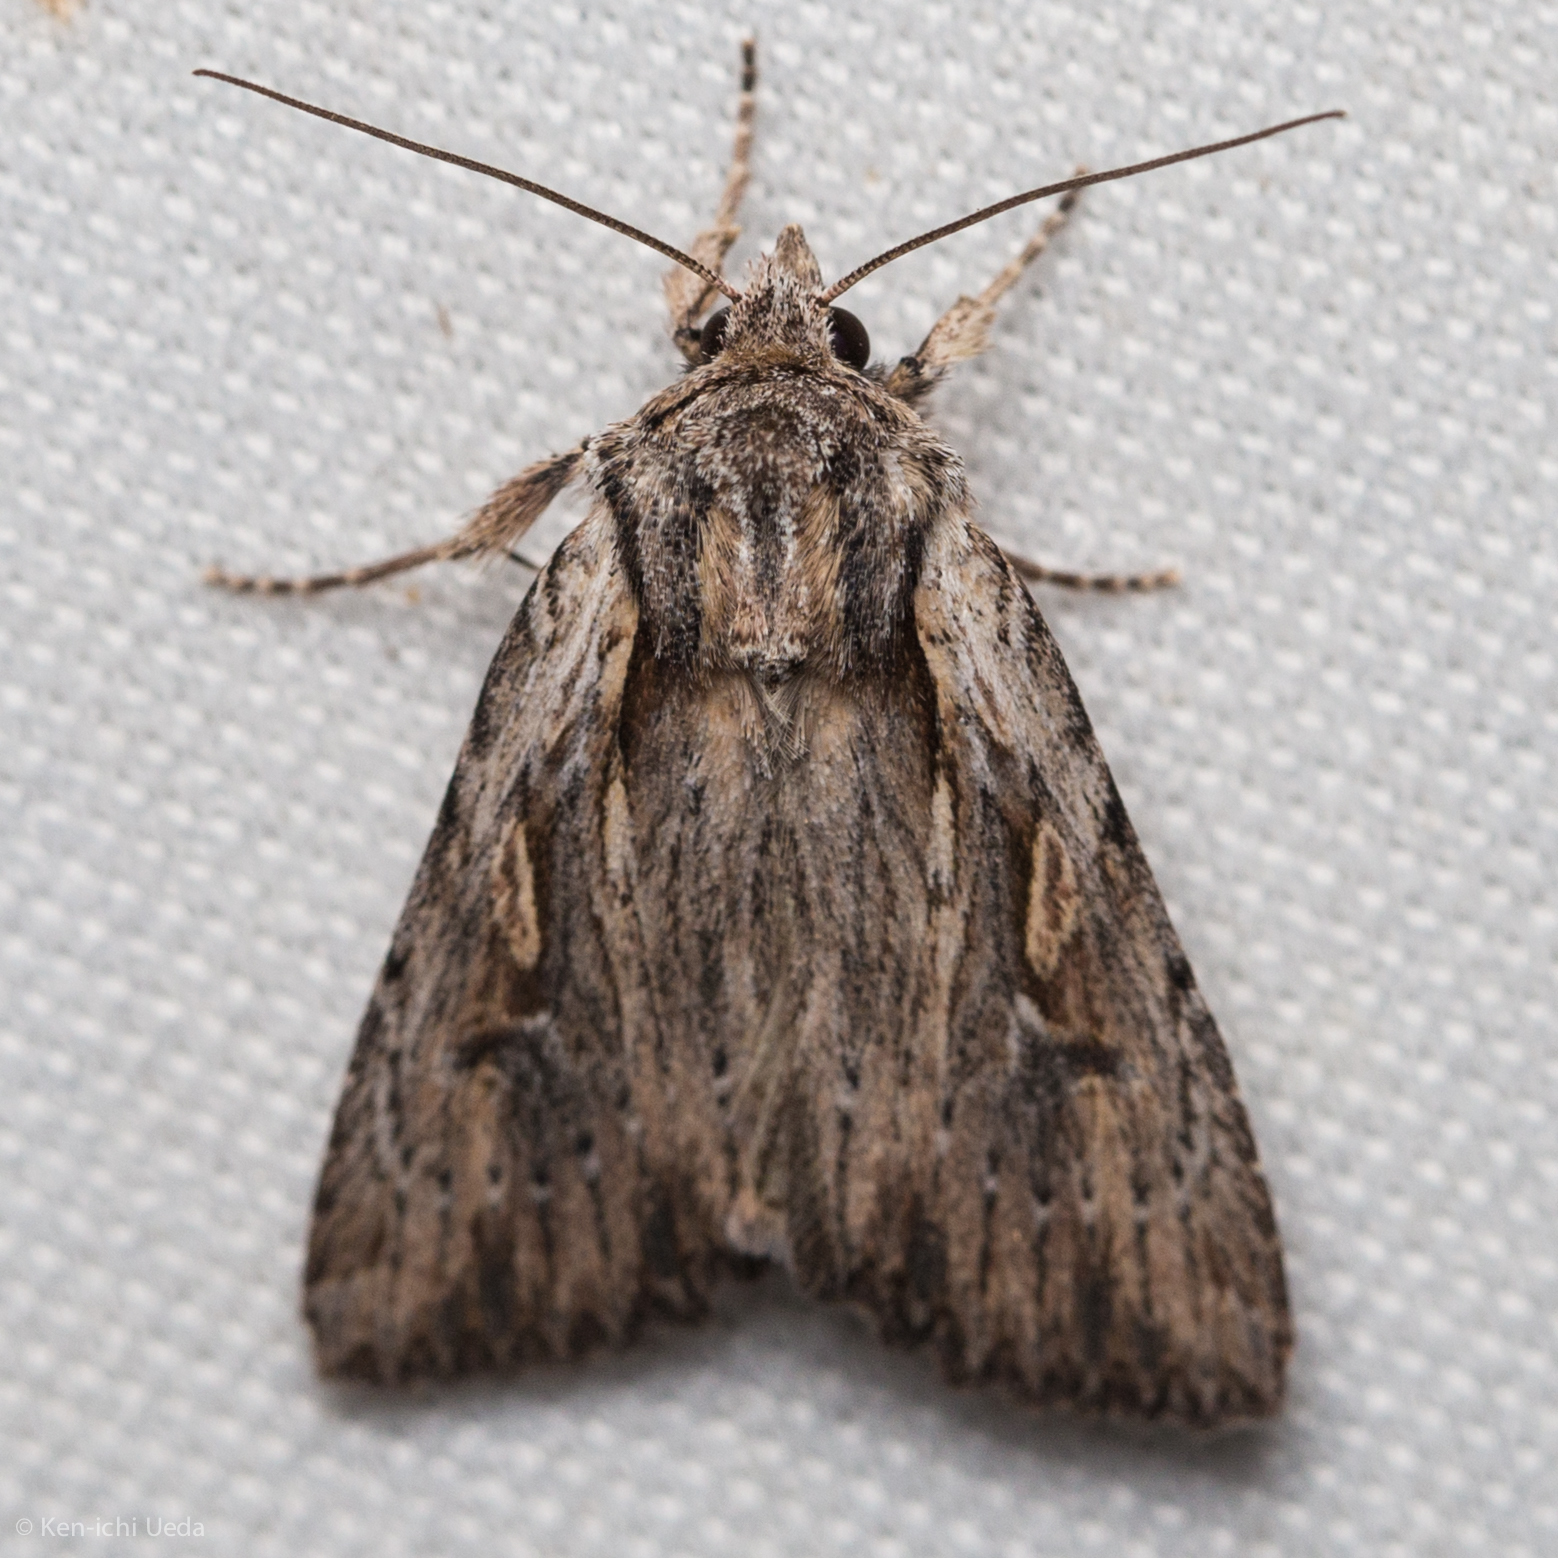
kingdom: Animalia
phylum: Arthropoda
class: Insecta
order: Lepidoptera
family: Noctuidae
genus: Xestia
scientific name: Xestia infimatis
